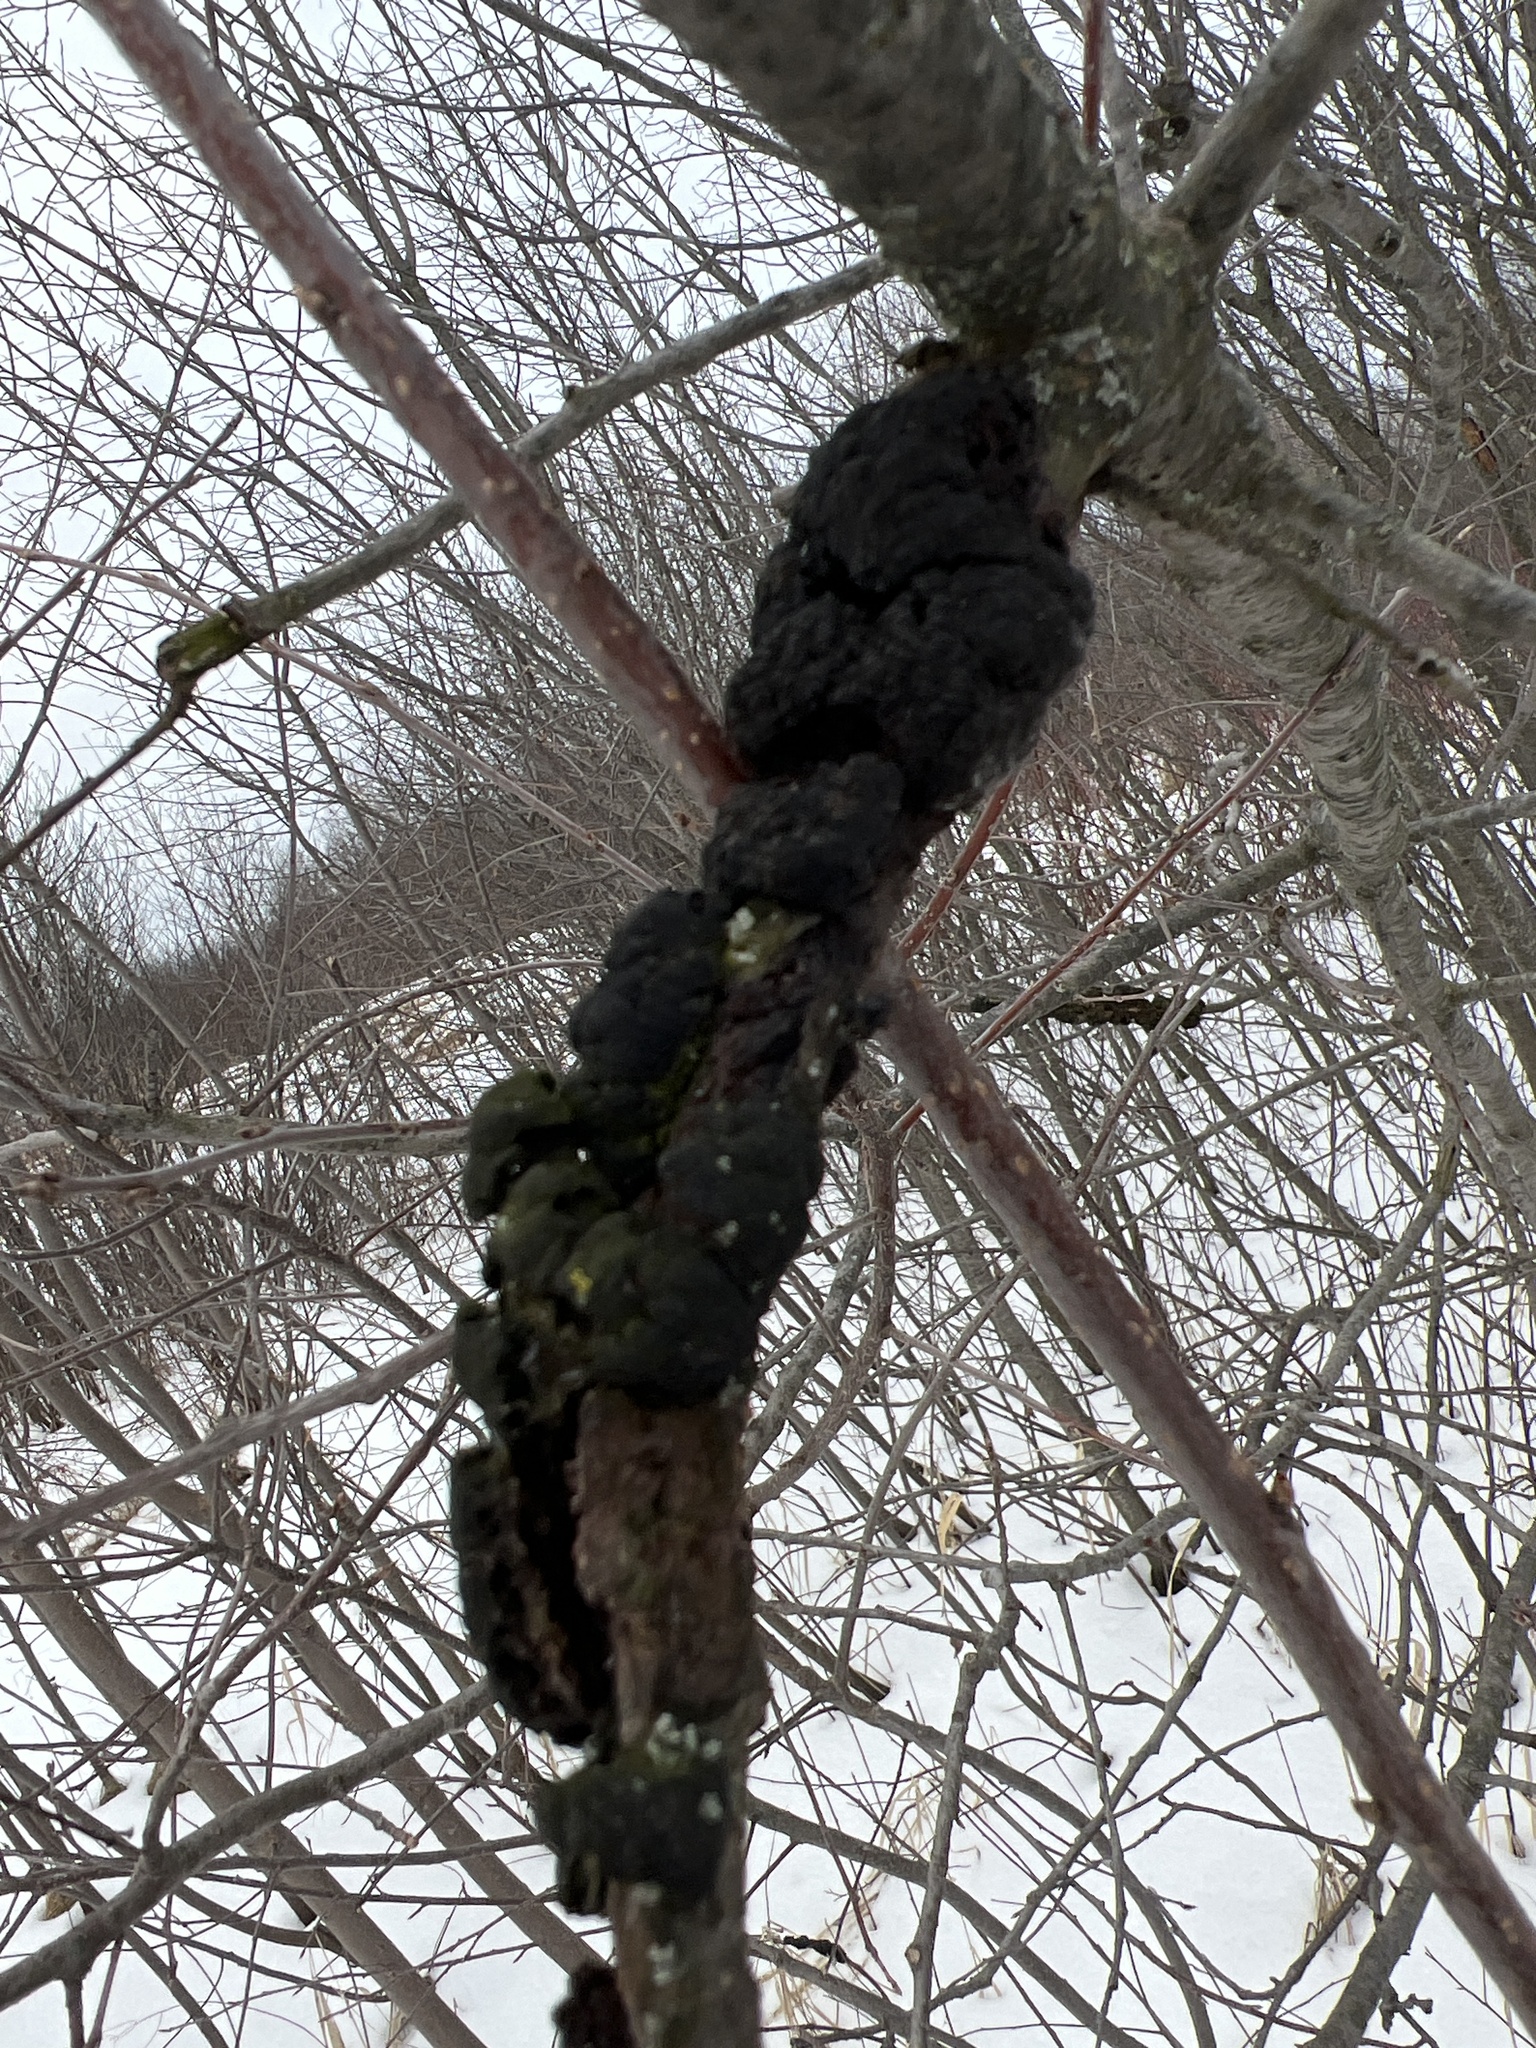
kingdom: Fungi
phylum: Ascomycota
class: Dothideomycetes
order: Venturiales
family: Venturiaceae
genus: Apiosporina
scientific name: Apiosporina morbosa
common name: Black knot
